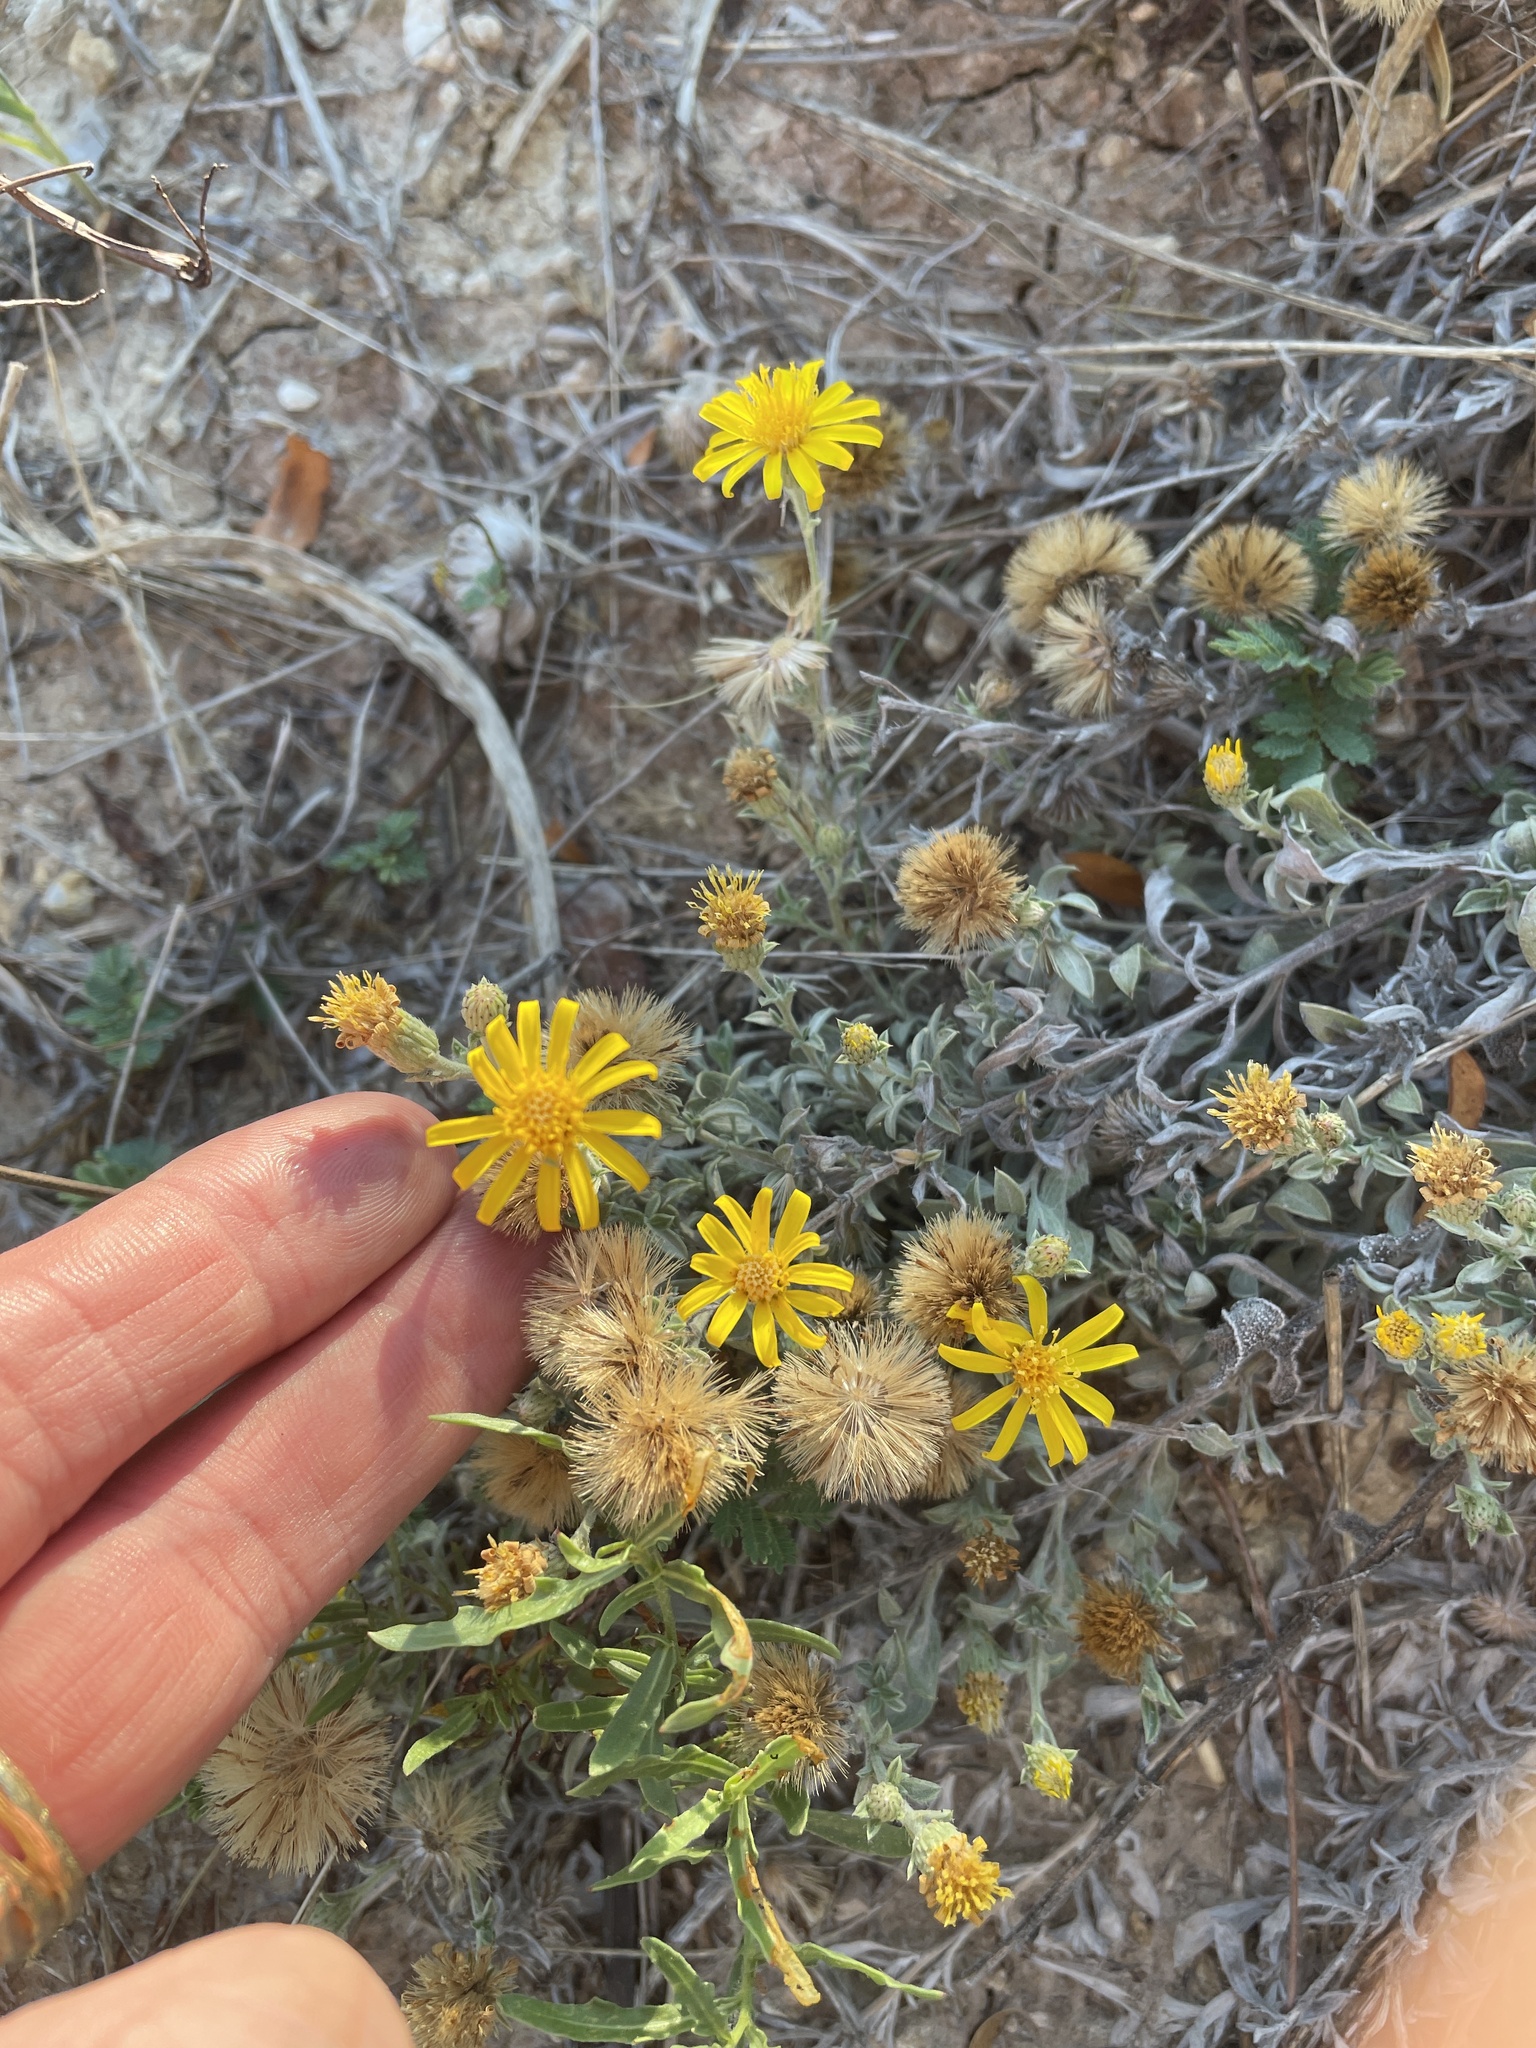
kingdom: Plantae
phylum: Tracheophyta
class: Magnoliopsida
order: Asterales
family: Asteraceae
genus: Heterotheca
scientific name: Heterotheca canescens
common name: Hoary golden-aster
